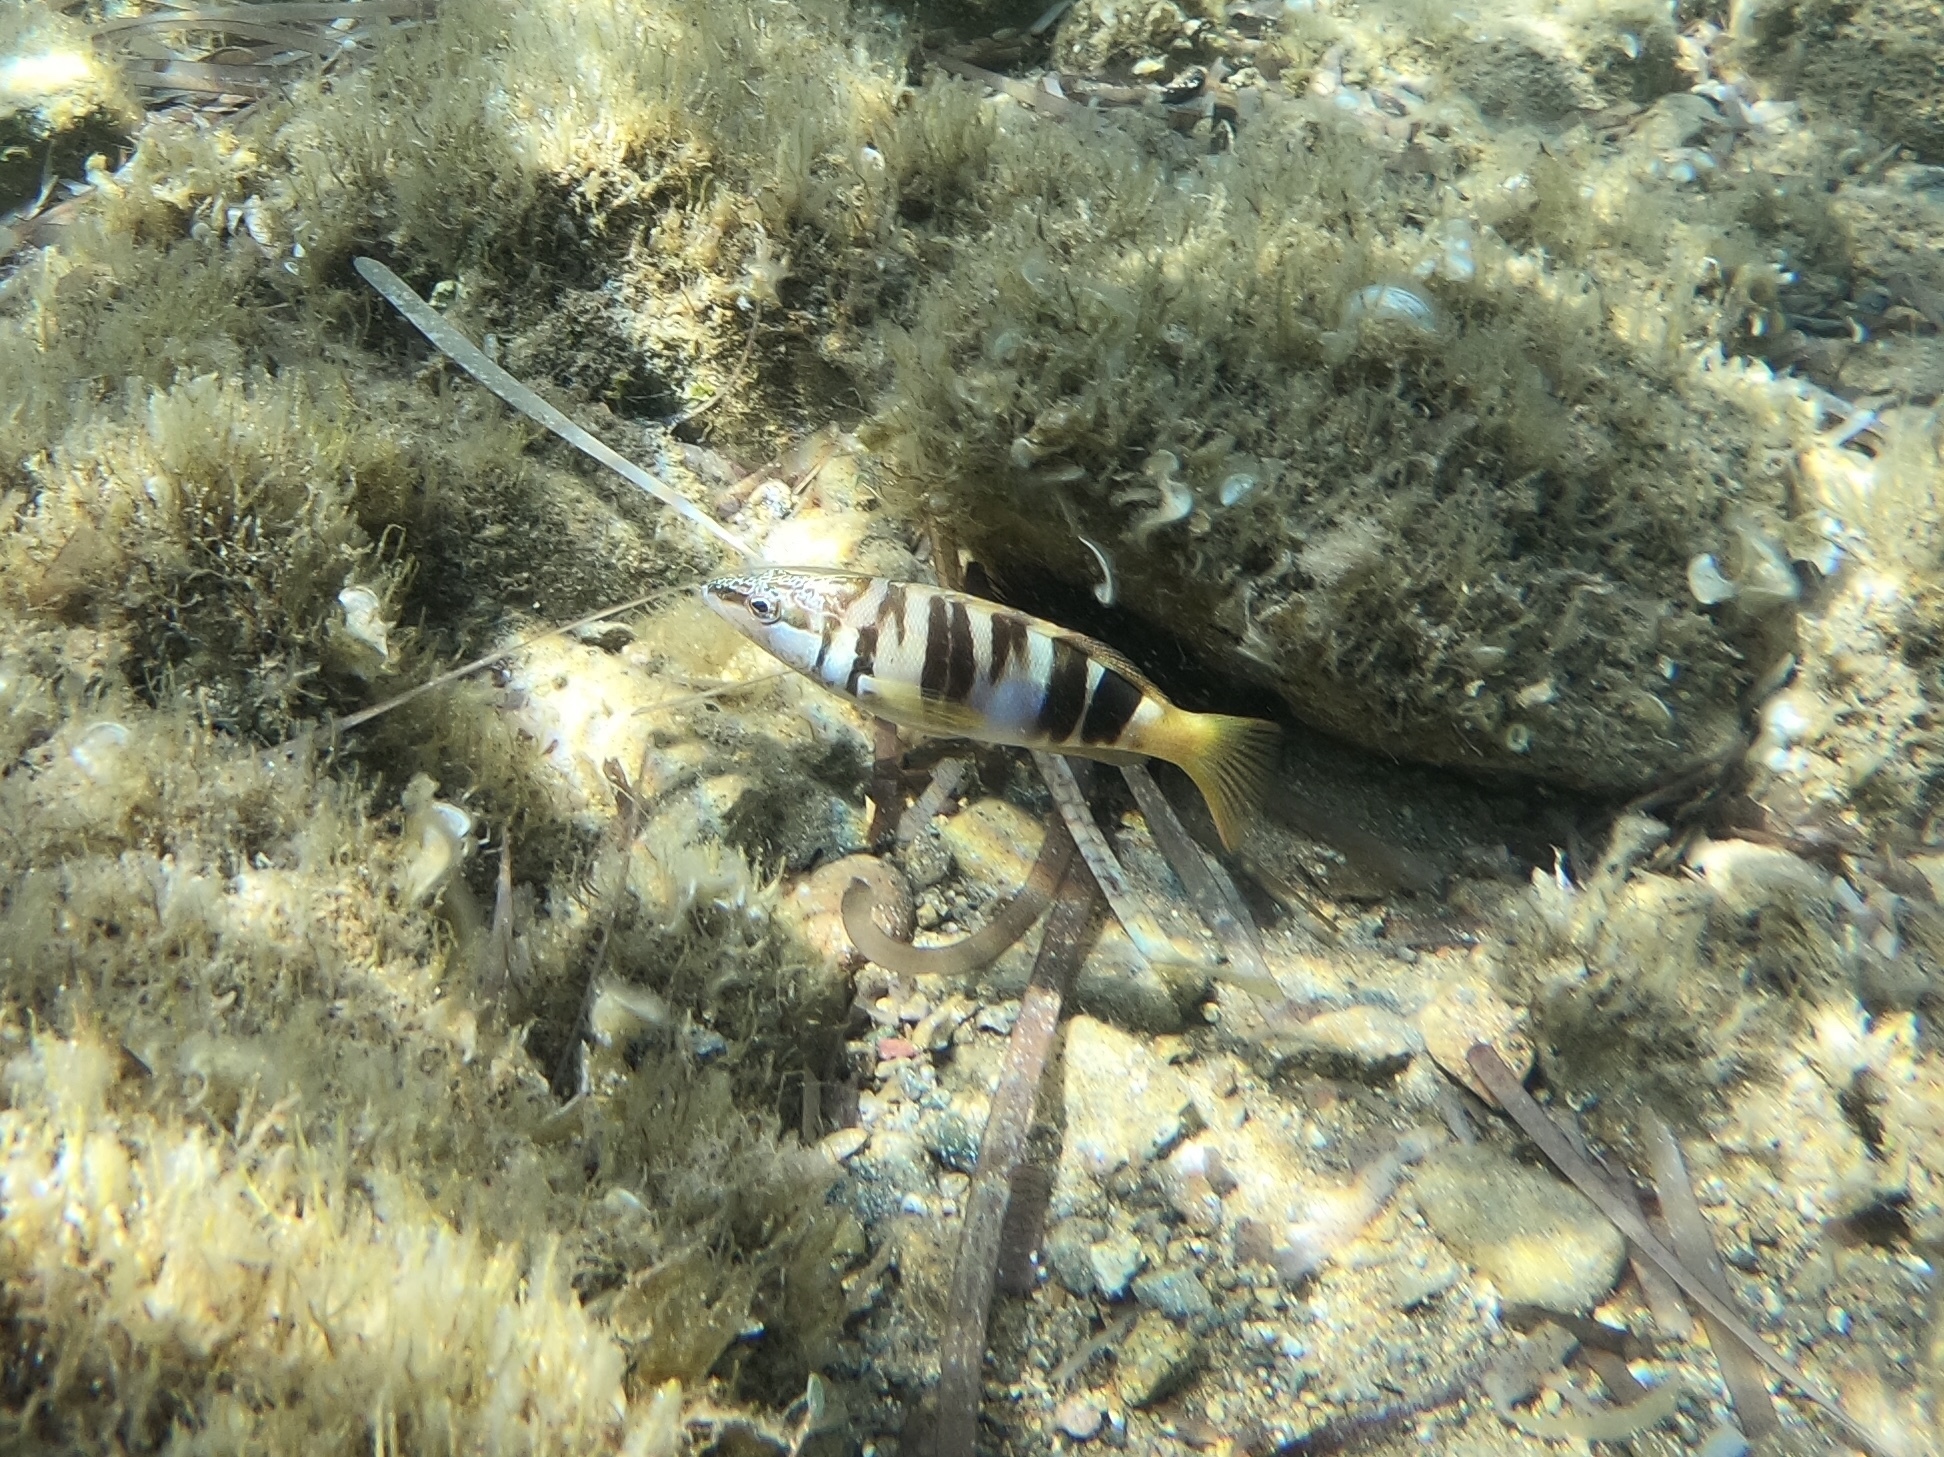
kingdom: Animalia
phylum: Chordata
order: Perciformes
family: Serranidae
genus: Serranus
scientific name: Serranus scriba
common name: Painted comber
